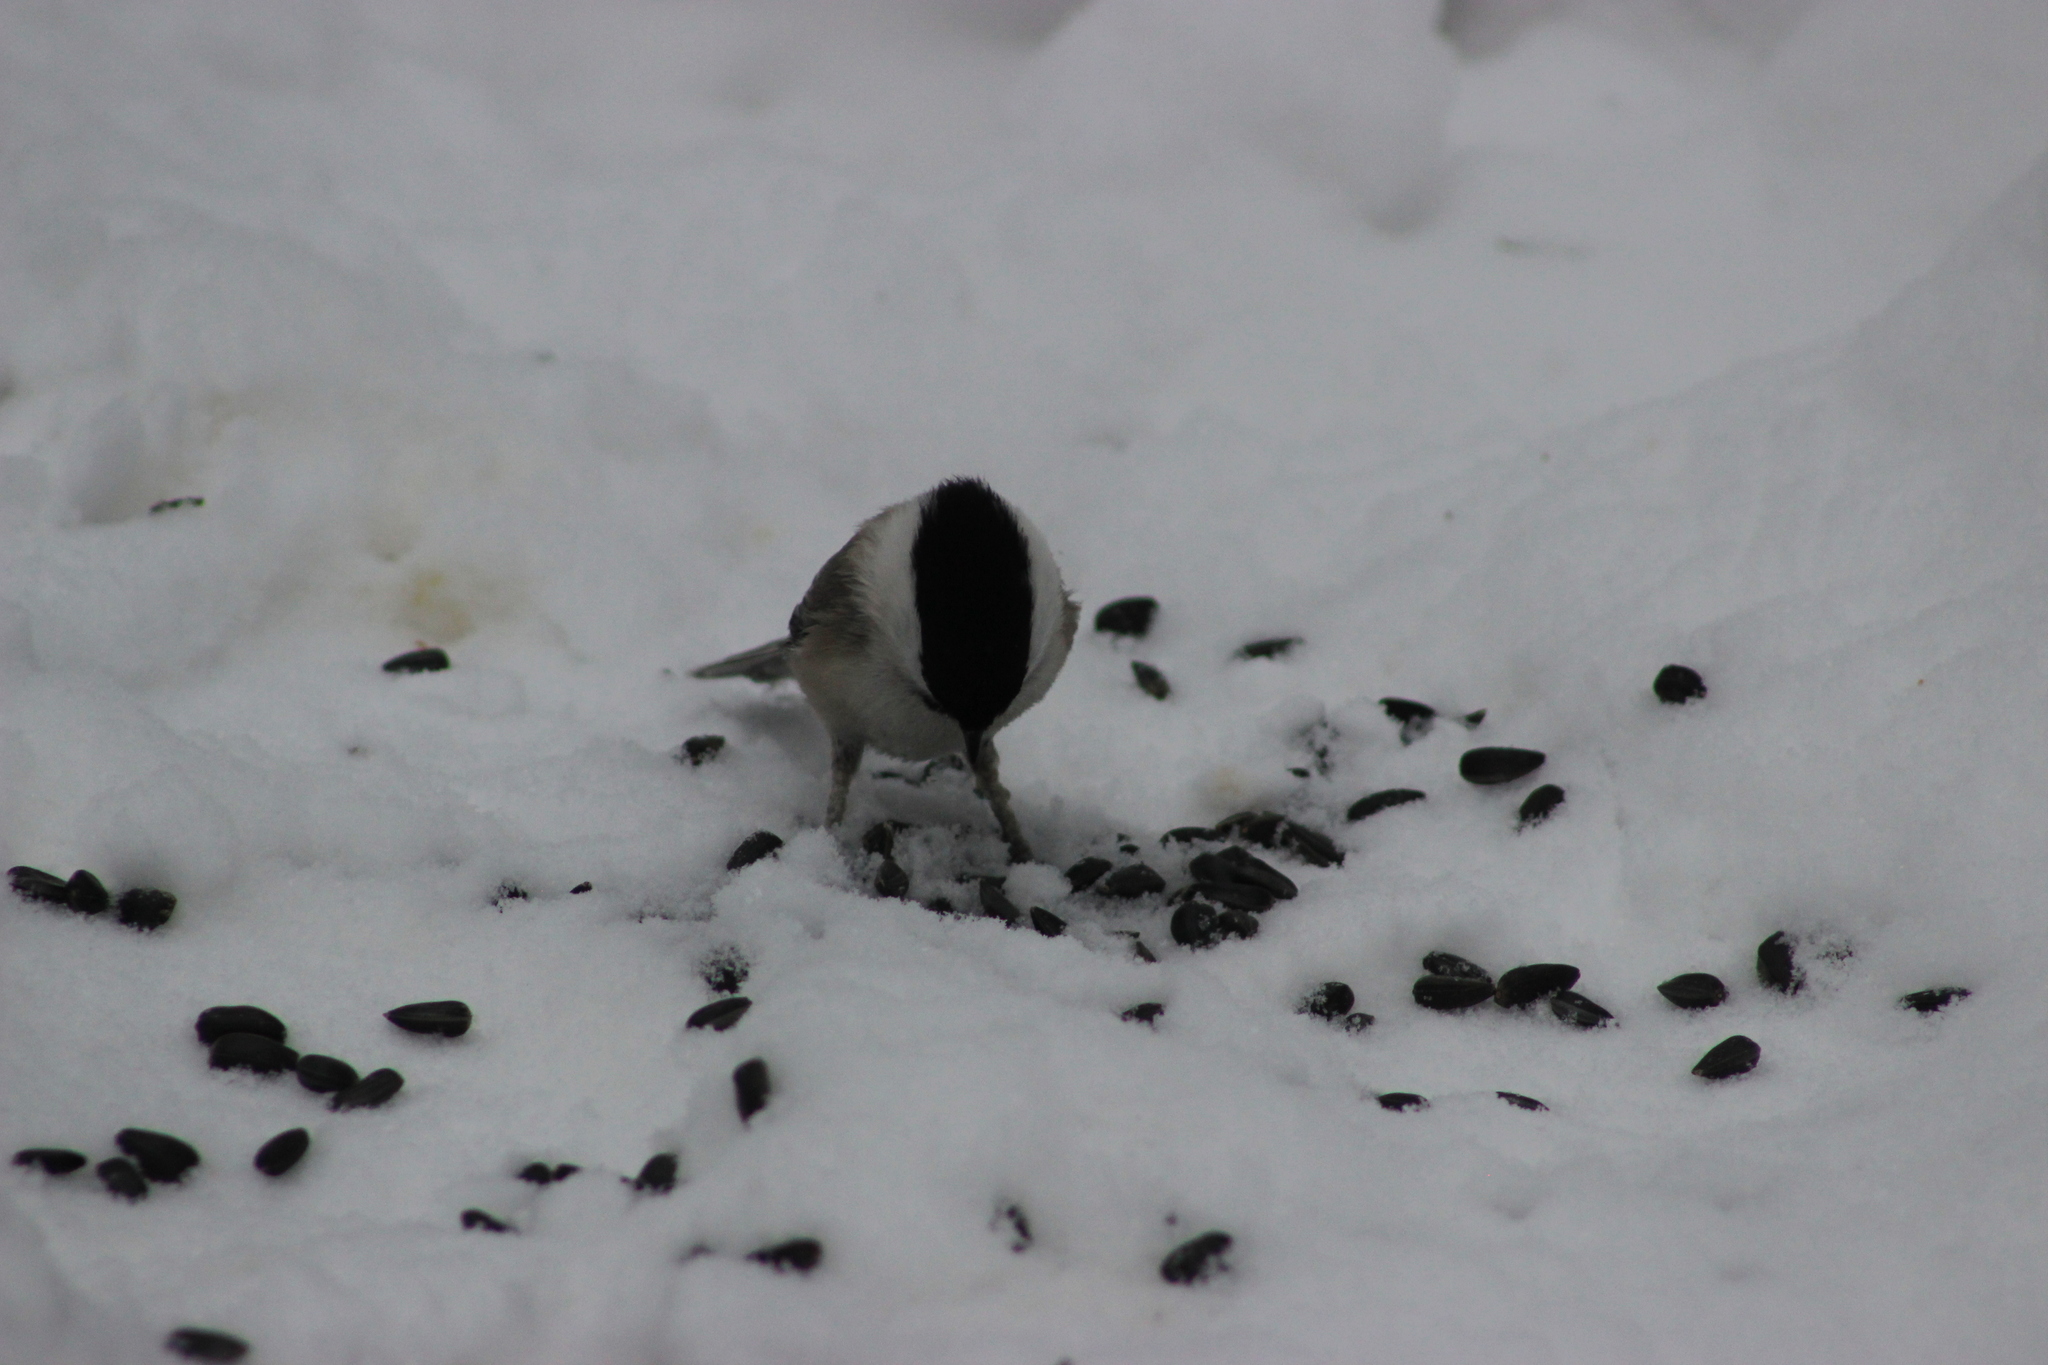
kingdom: Animalia
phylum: Chordata
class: Aves
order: Passeriformes
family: Paridae
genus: Poecile
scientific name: Poecile montanus
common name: Willow tit
